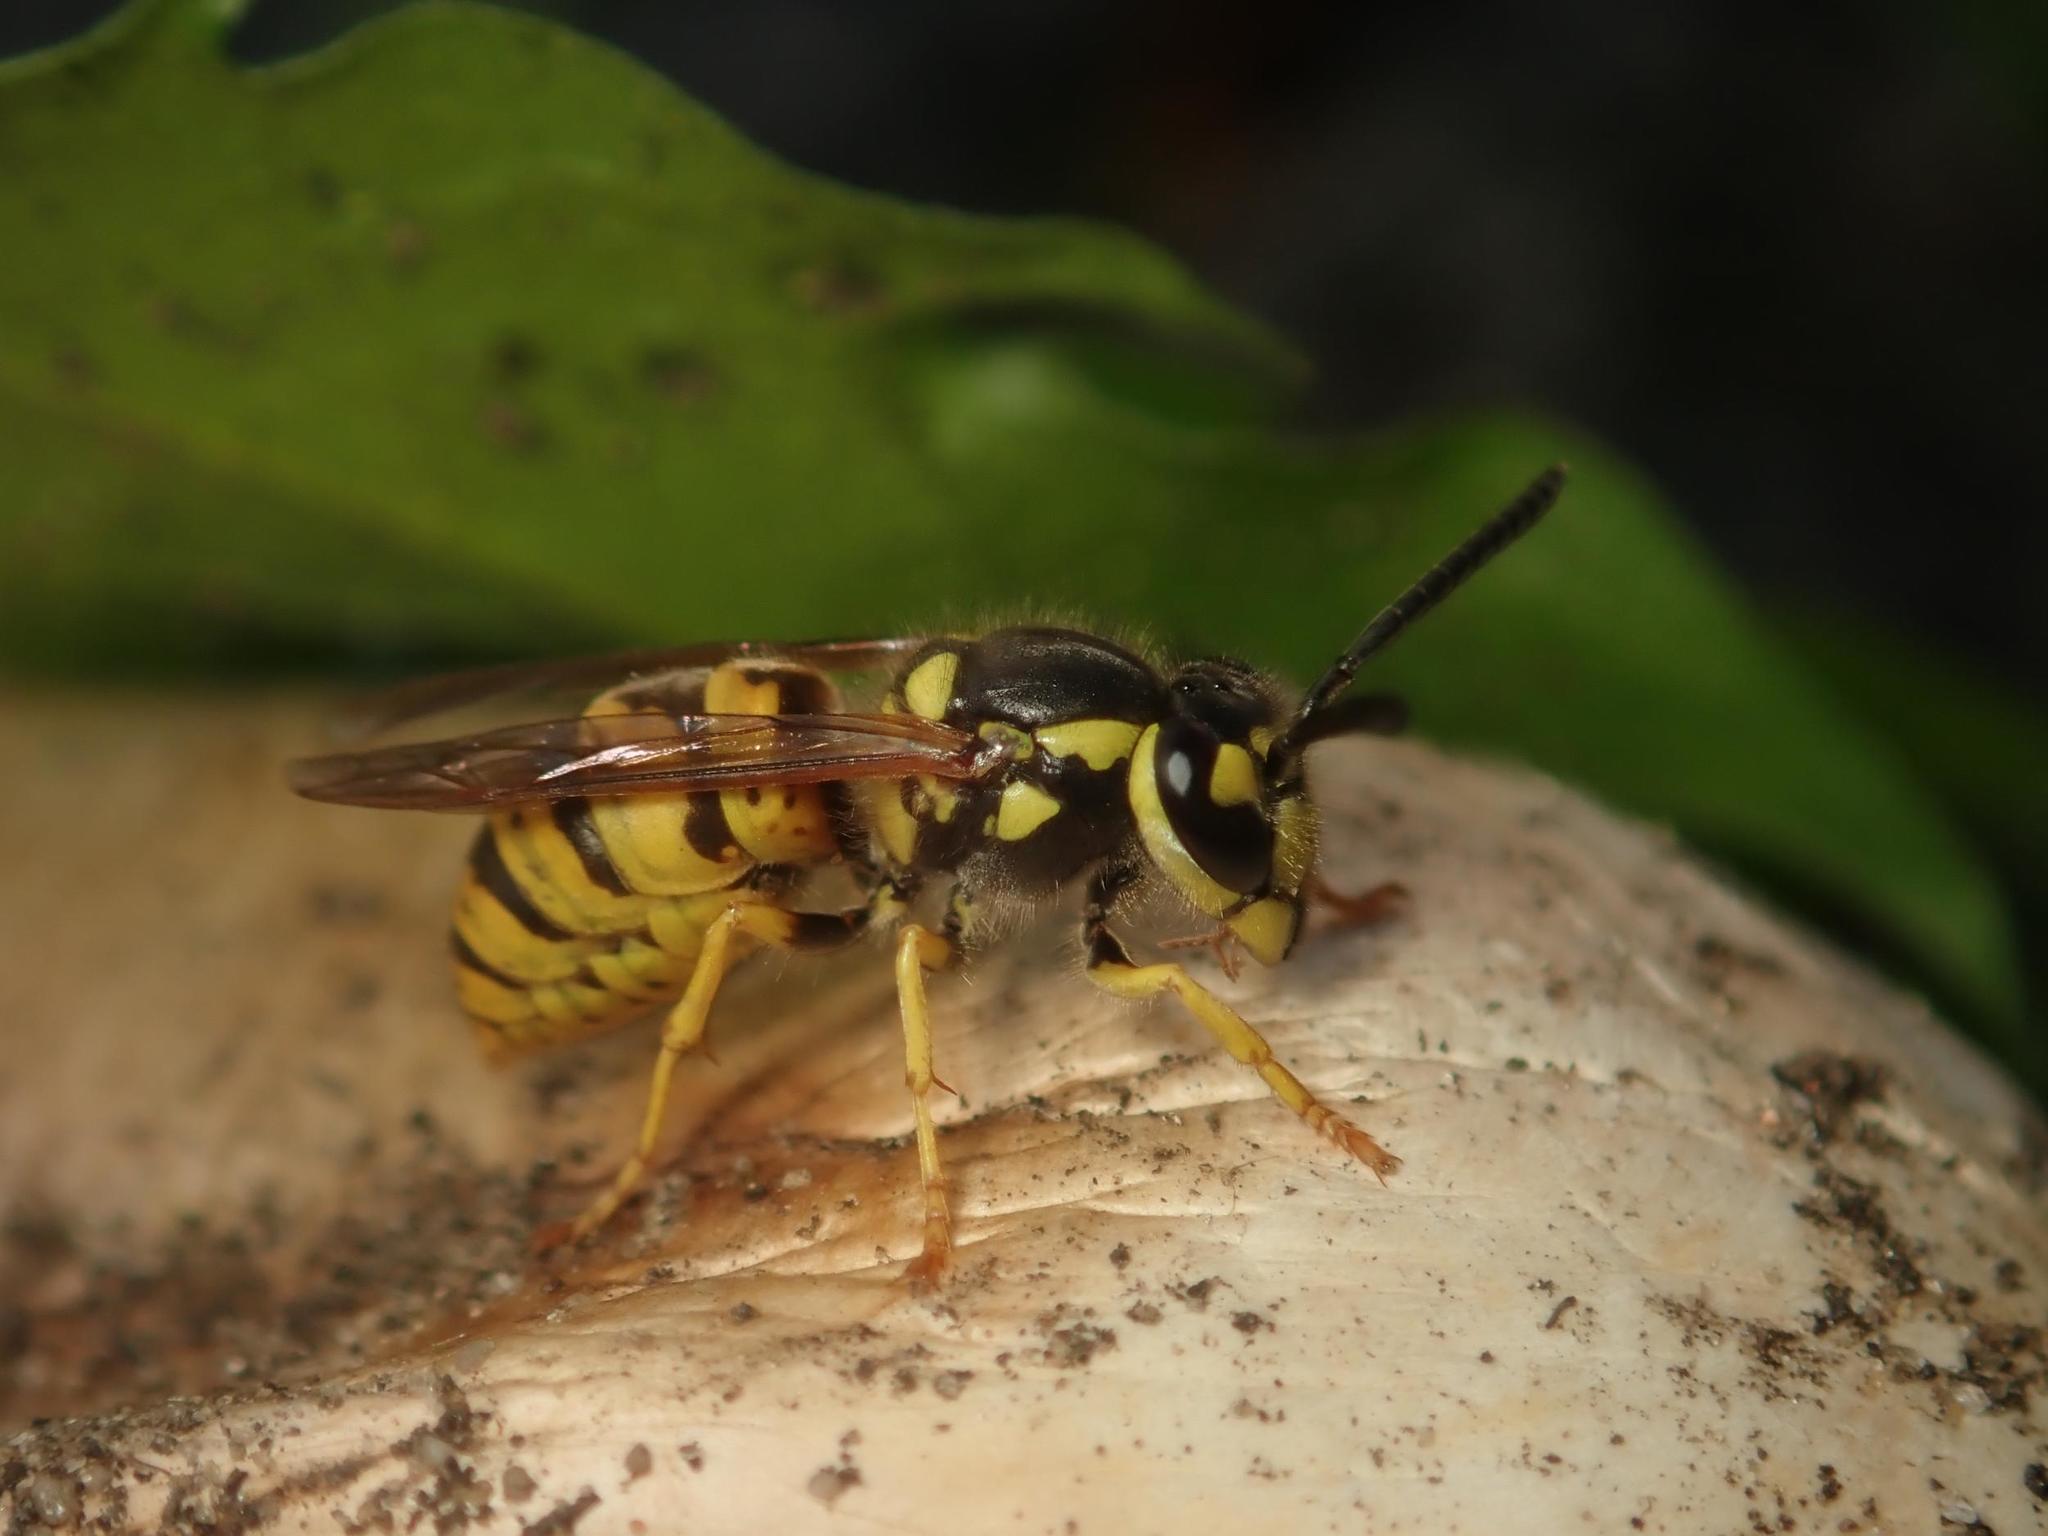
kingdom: Animalia
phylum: Arthropoda
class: Insecta
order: Hymenoptera
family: Vespidae
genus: Vespula
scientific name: Vespula germanica
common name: German wasp
